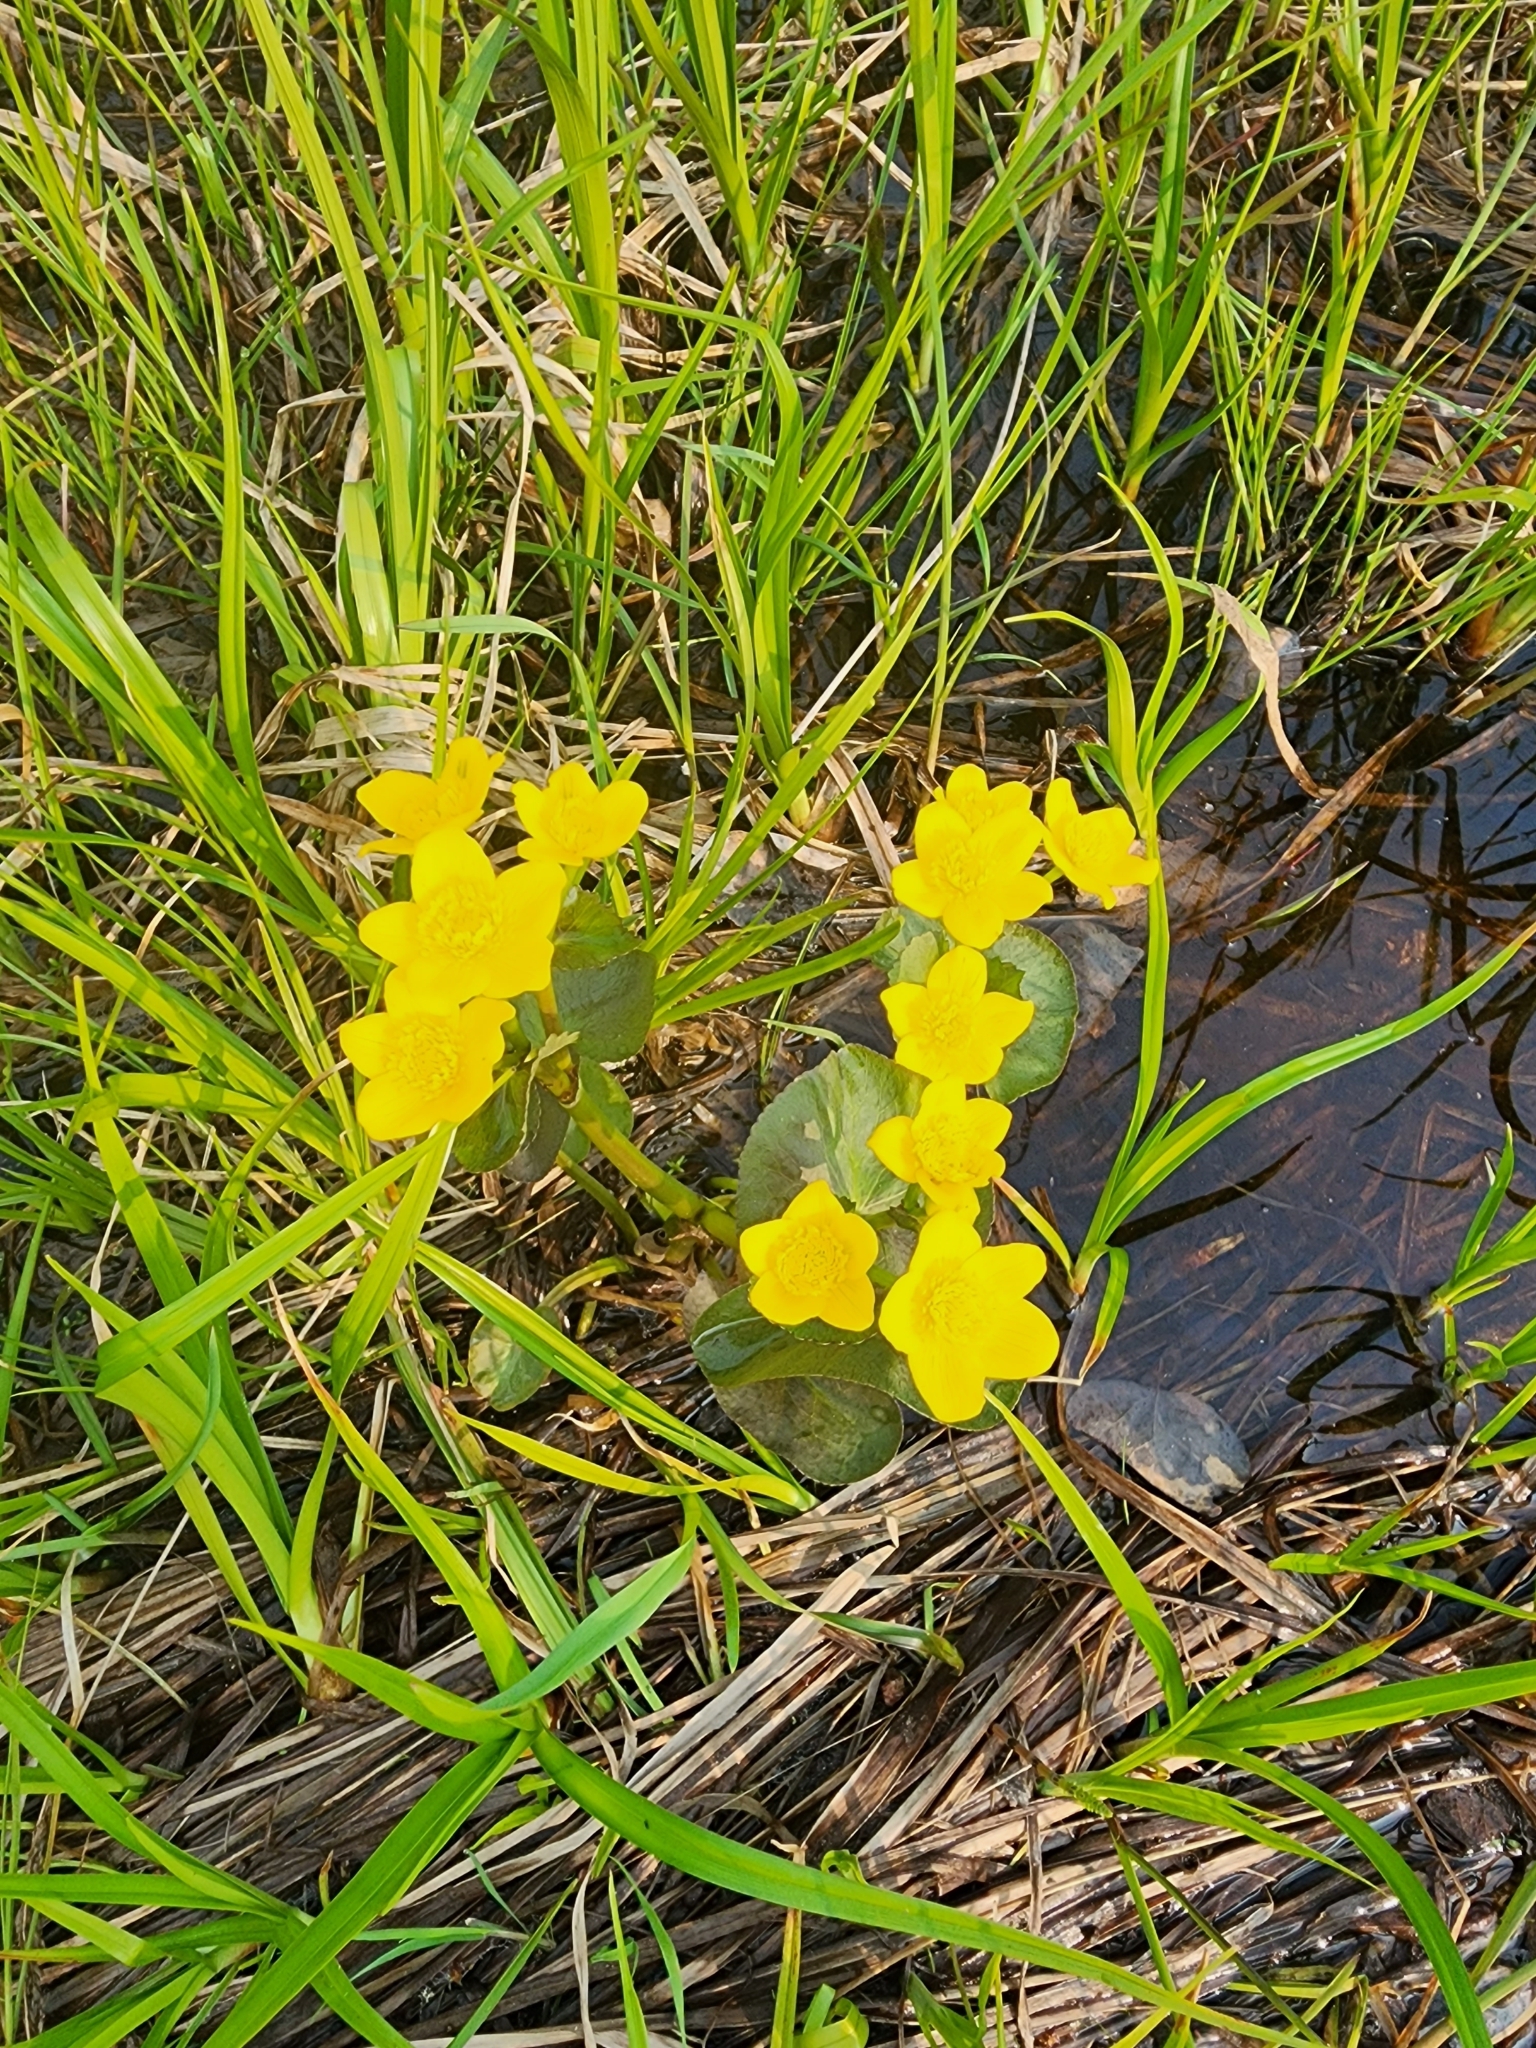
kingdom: Plantae
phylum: Tracheophyta
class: Magnoliopsida
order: Ranunculales
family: Ranunculaceae
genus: Caltha
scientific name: Caltha palustris
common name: Marsh marigold
